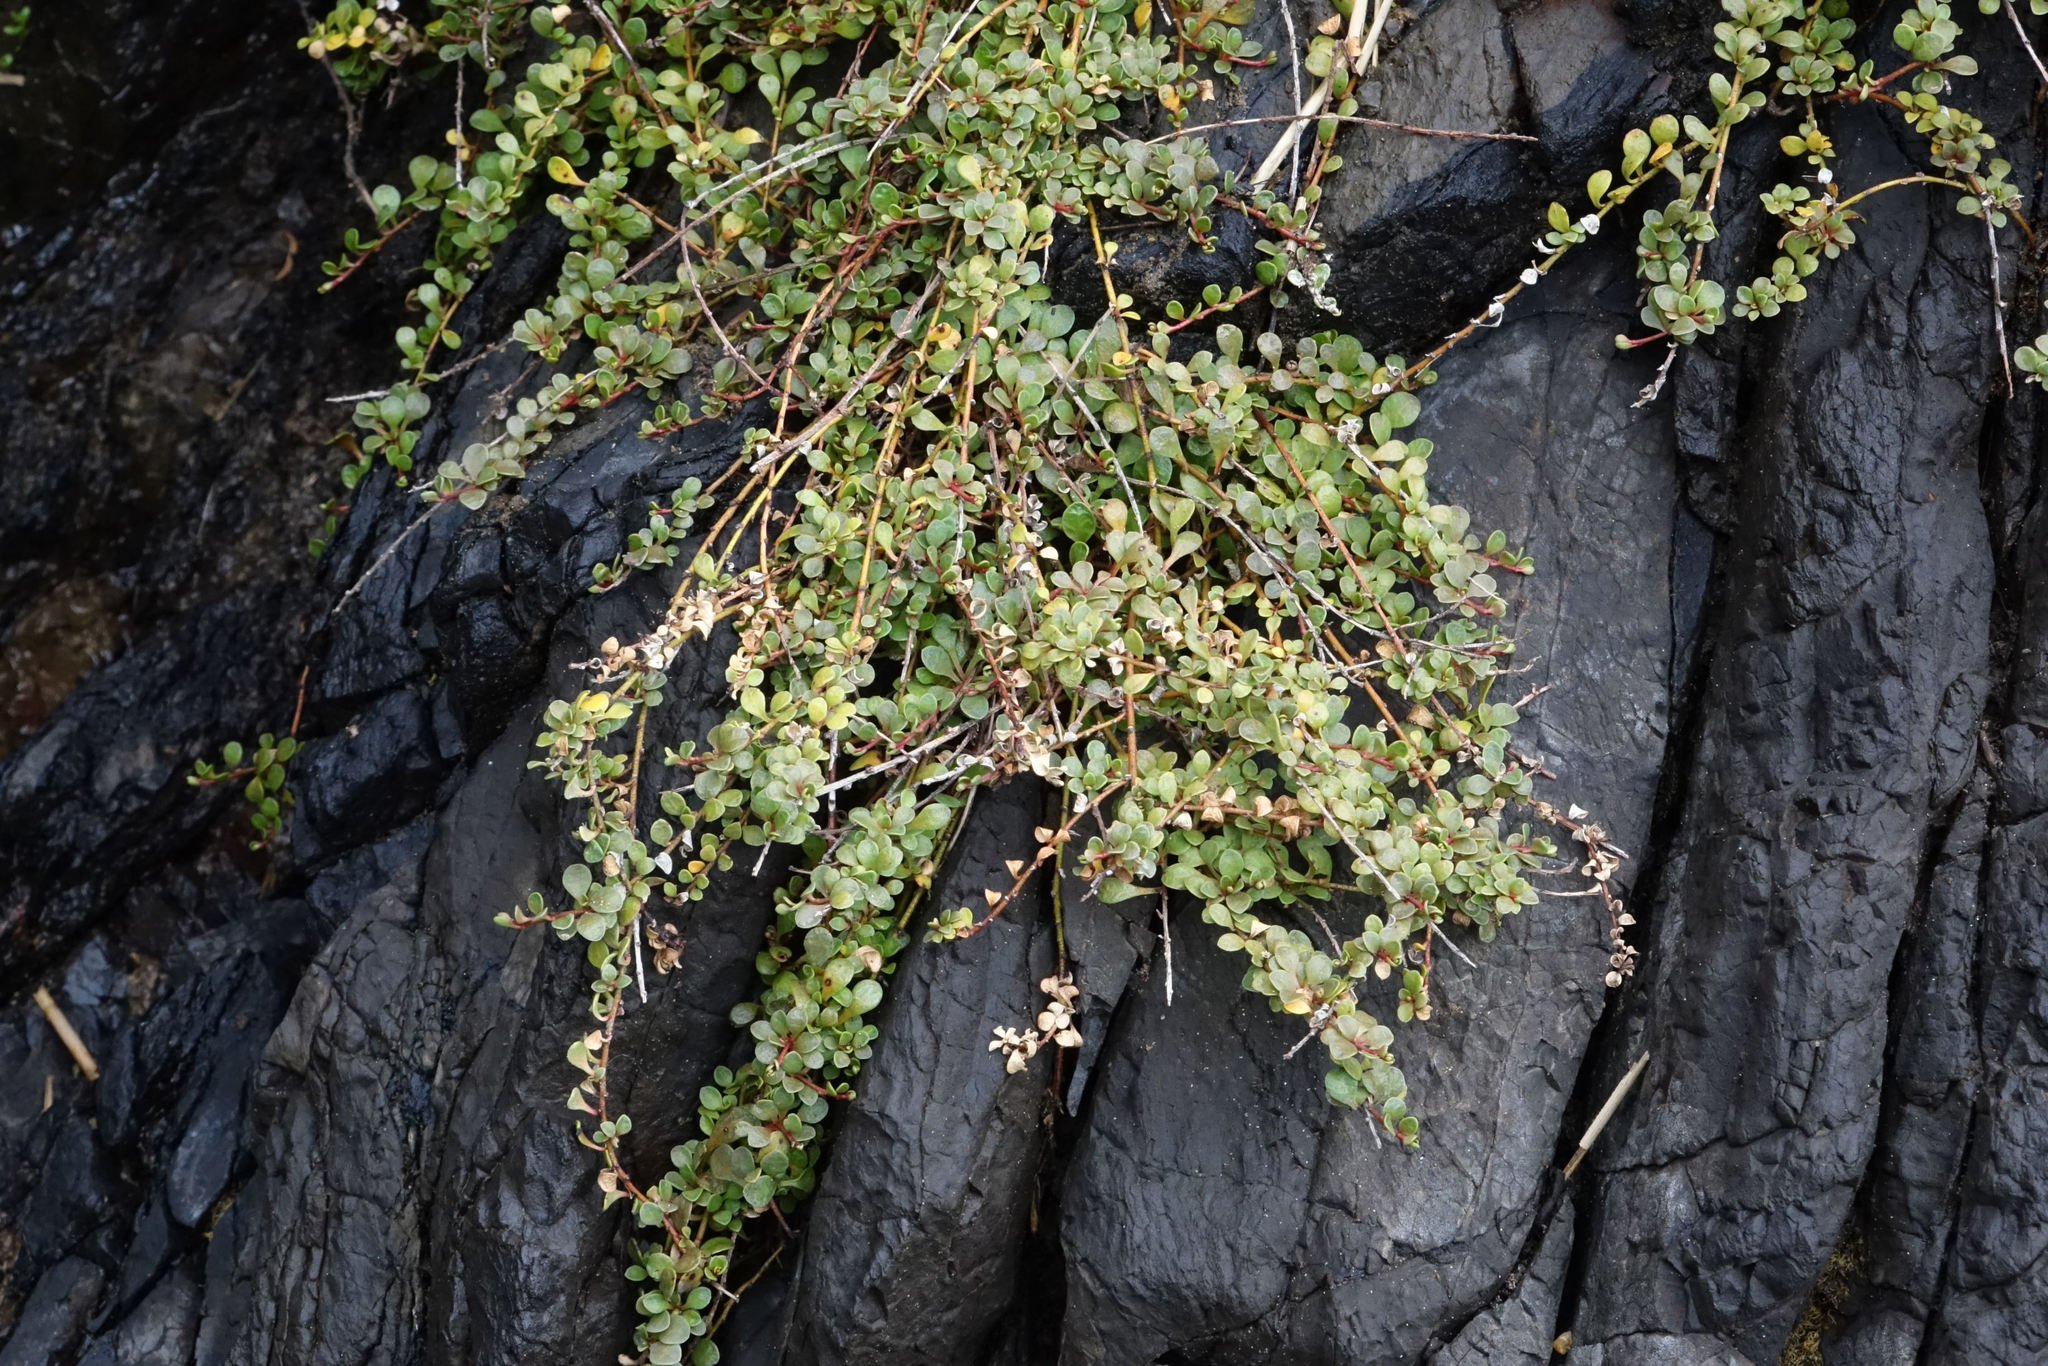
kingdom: Plantae
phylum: Tracheophyta
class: Magnoliopsida
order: Ericales
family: Primulaceae
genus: Samolus
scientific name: Samolus repens
